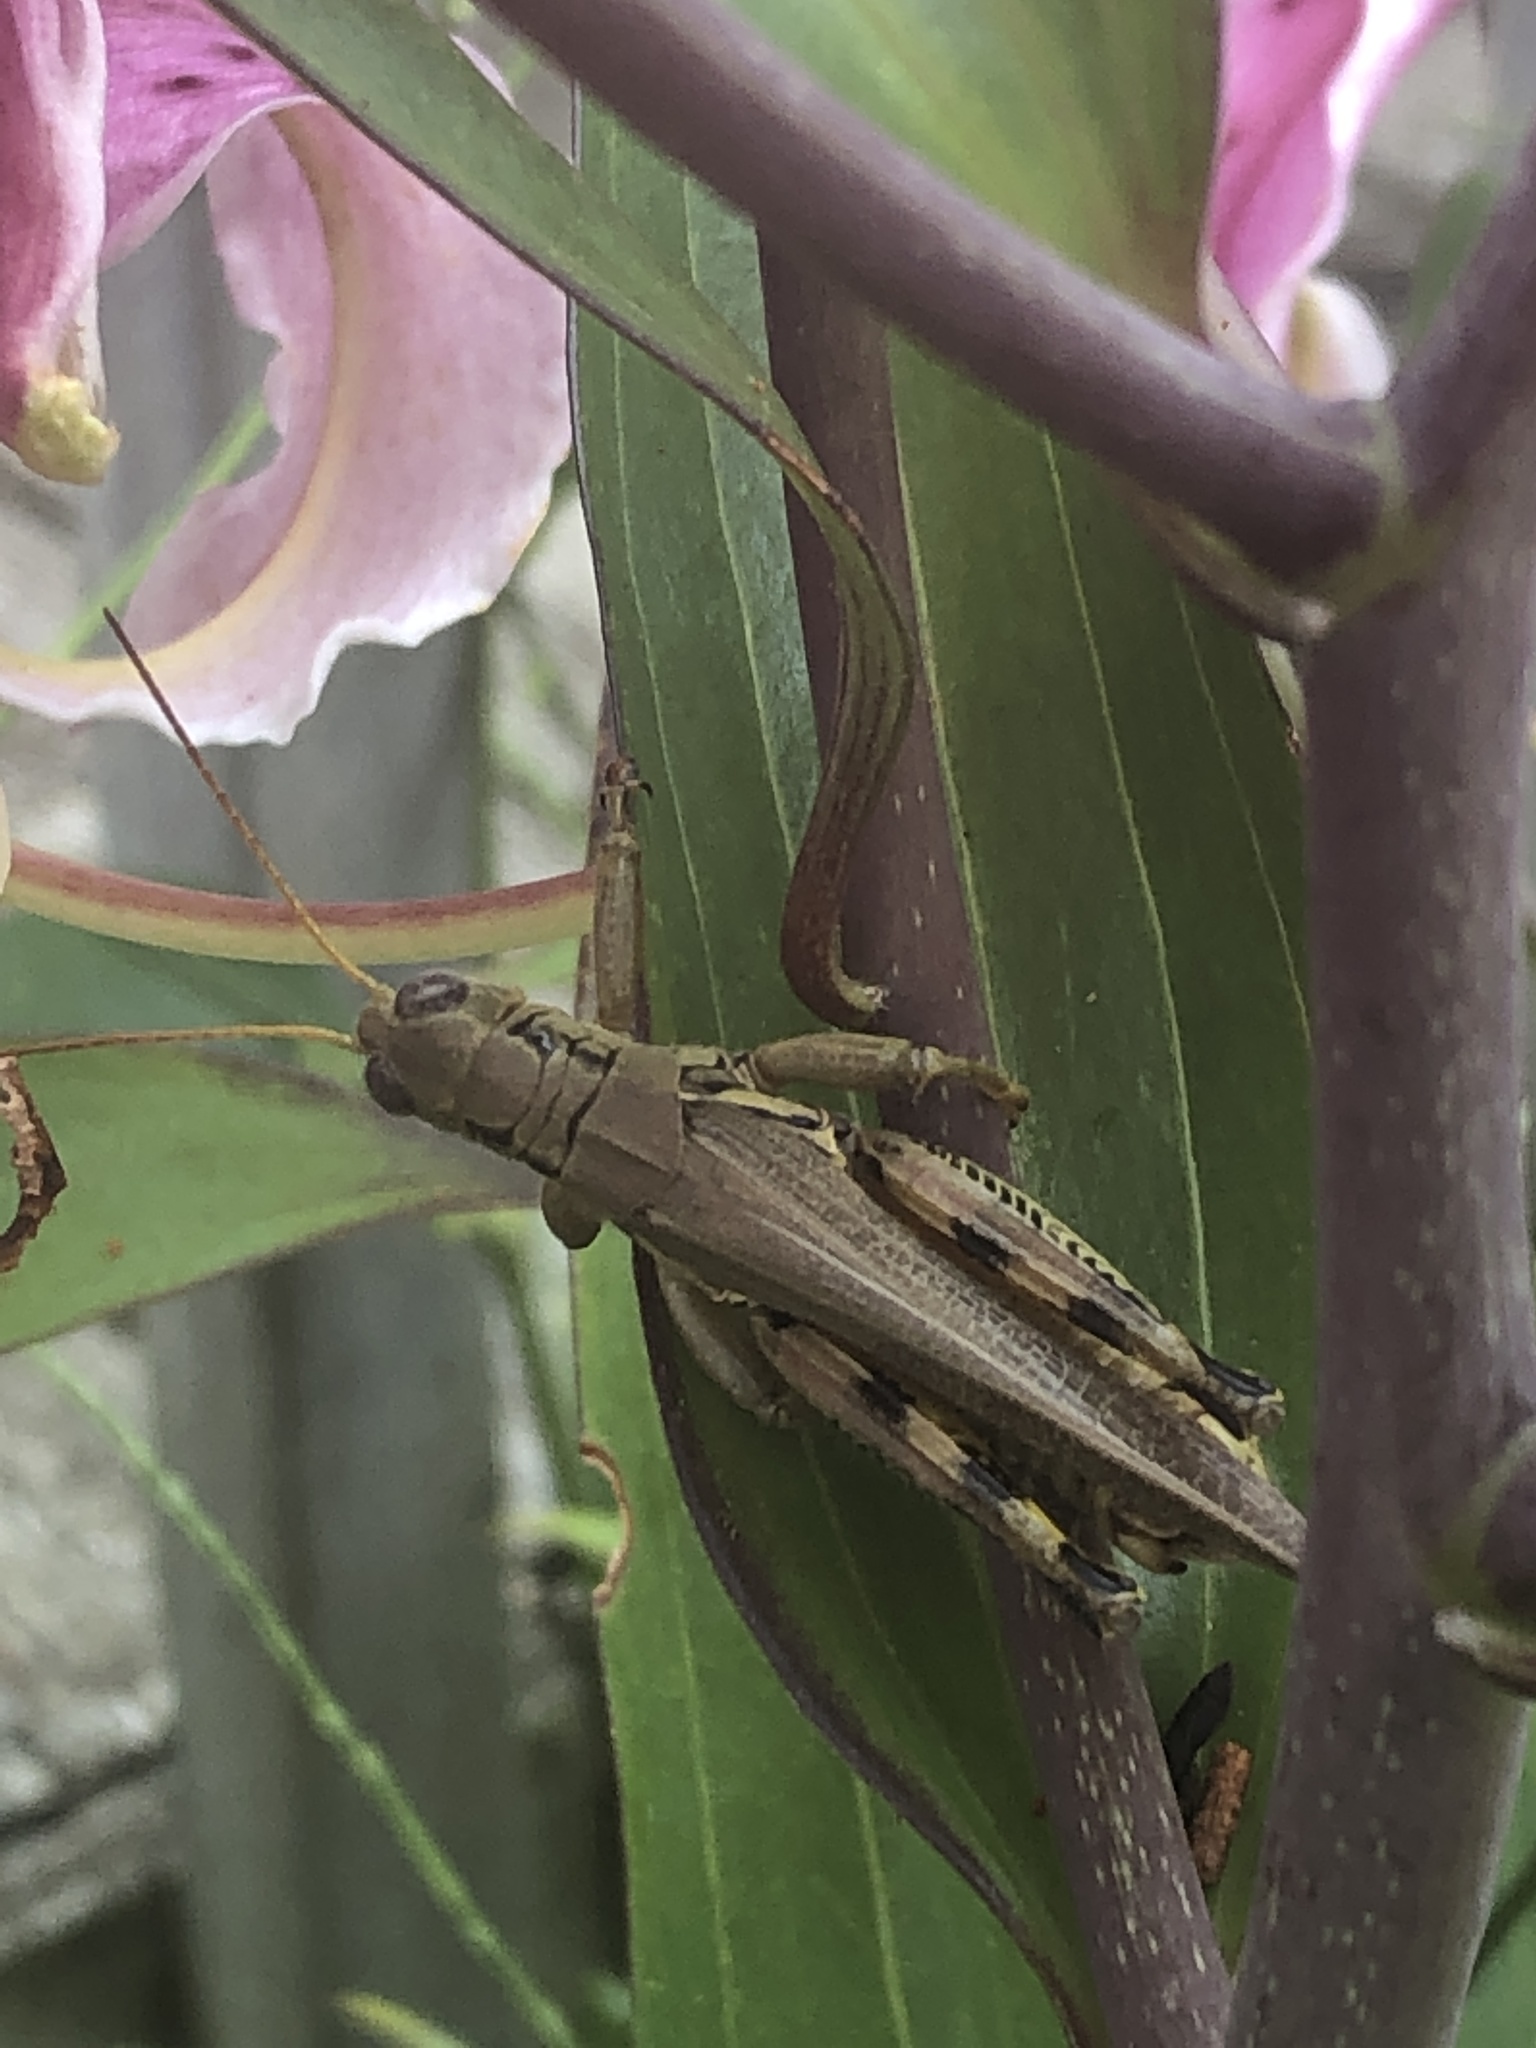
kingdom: Animalia
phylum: Arthropoda
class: Insecta
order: Orthoptera
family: Acrididae
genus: Melanoplus
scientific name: Melanoplus differentialis
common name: Differential grasshopper
